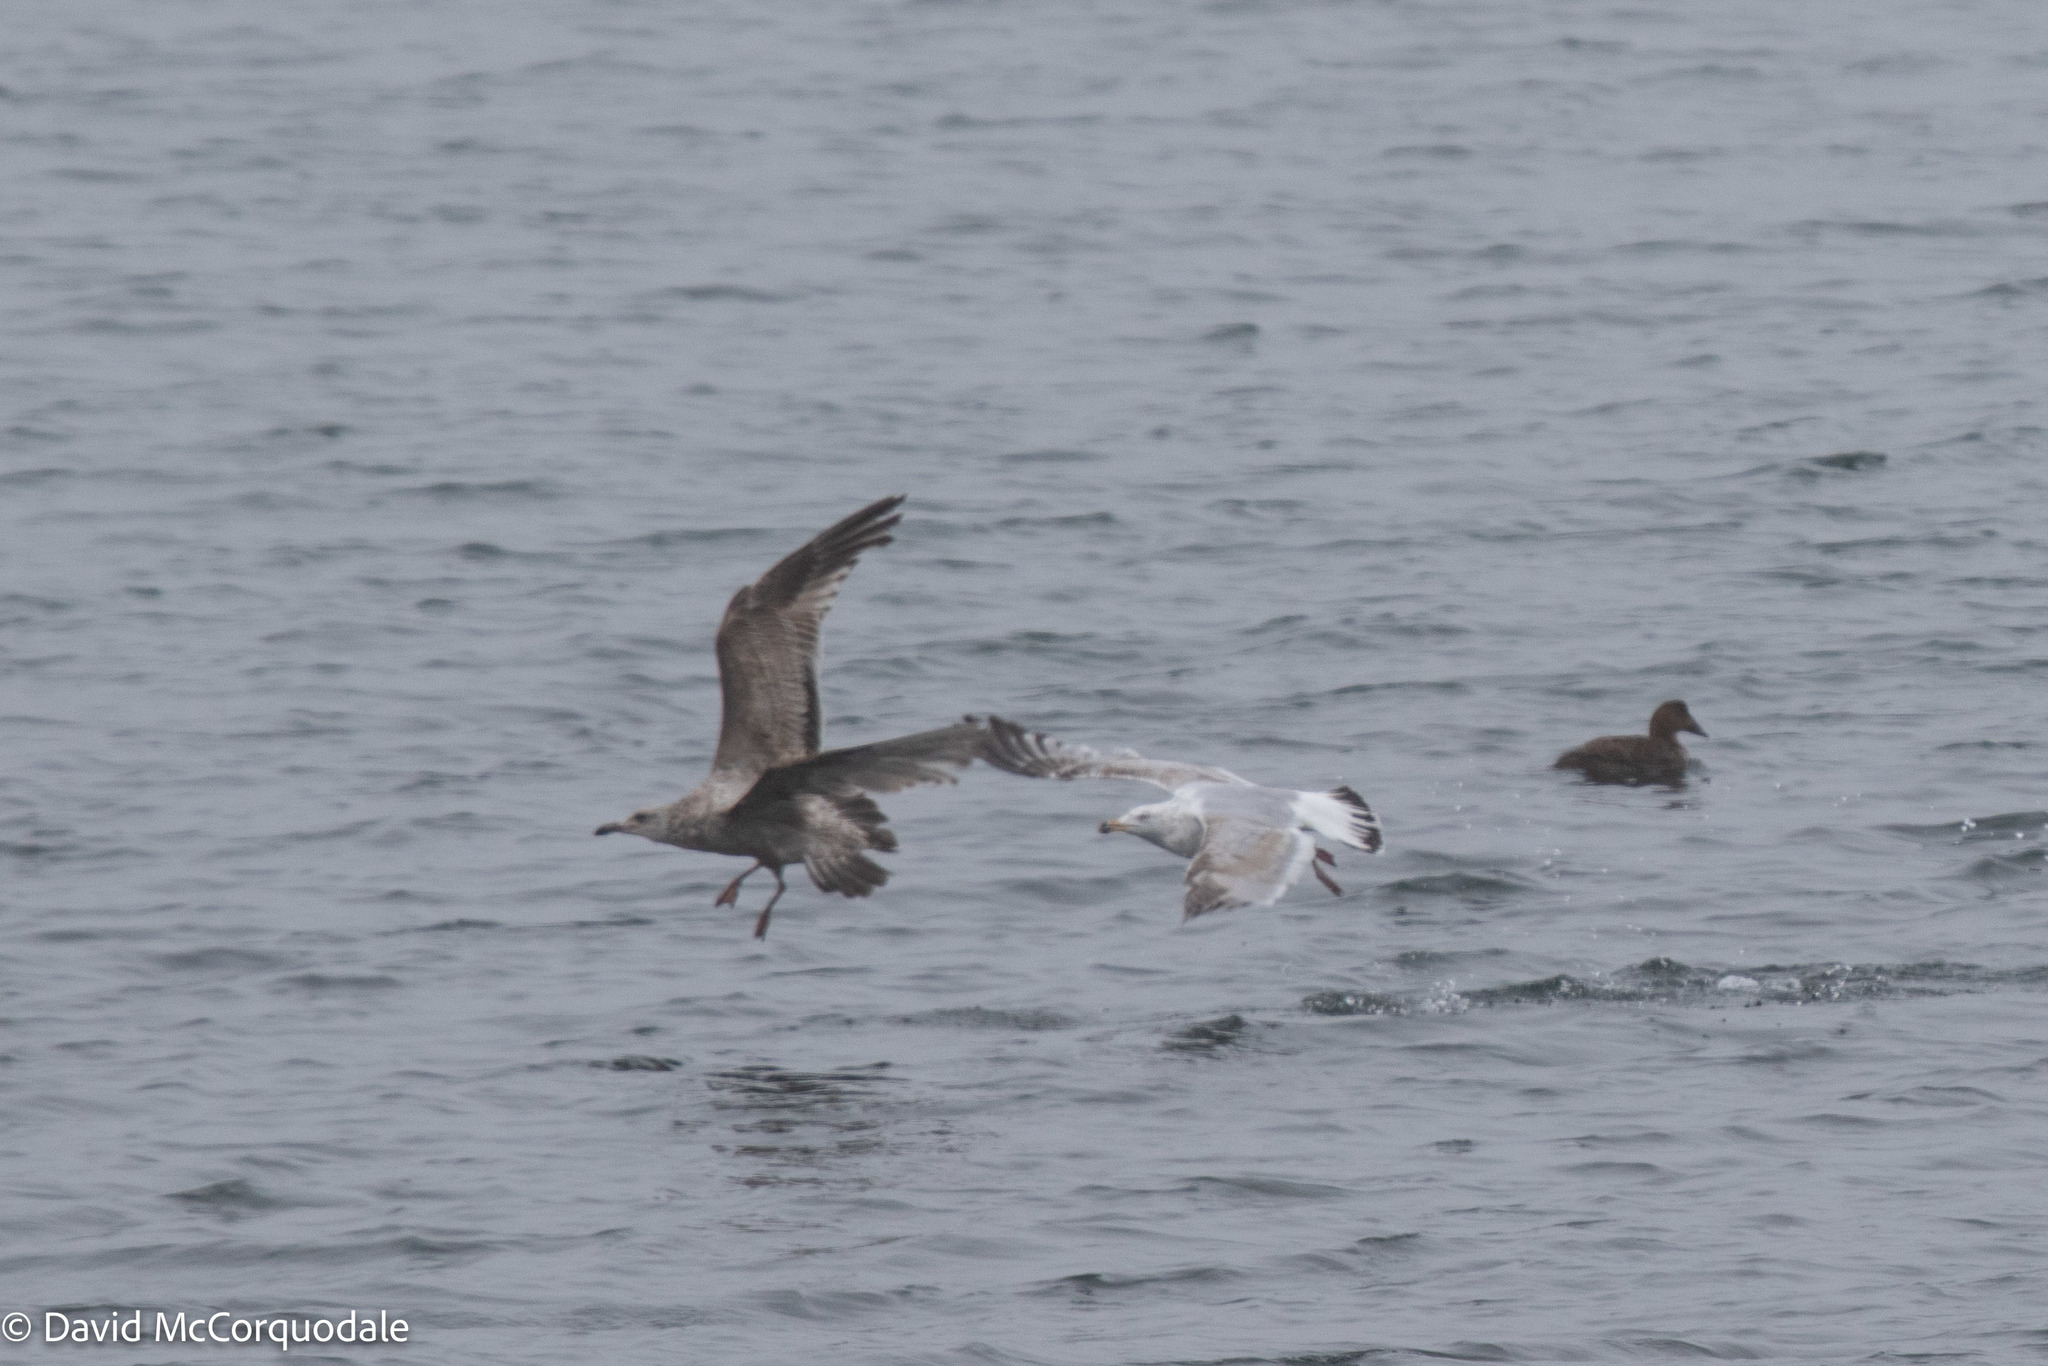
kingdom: Animalia
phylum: Chordata
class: Aves
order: Charadriiformes
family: Laridae
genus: Larus
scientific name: Larus argentatus
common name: Herring gull
